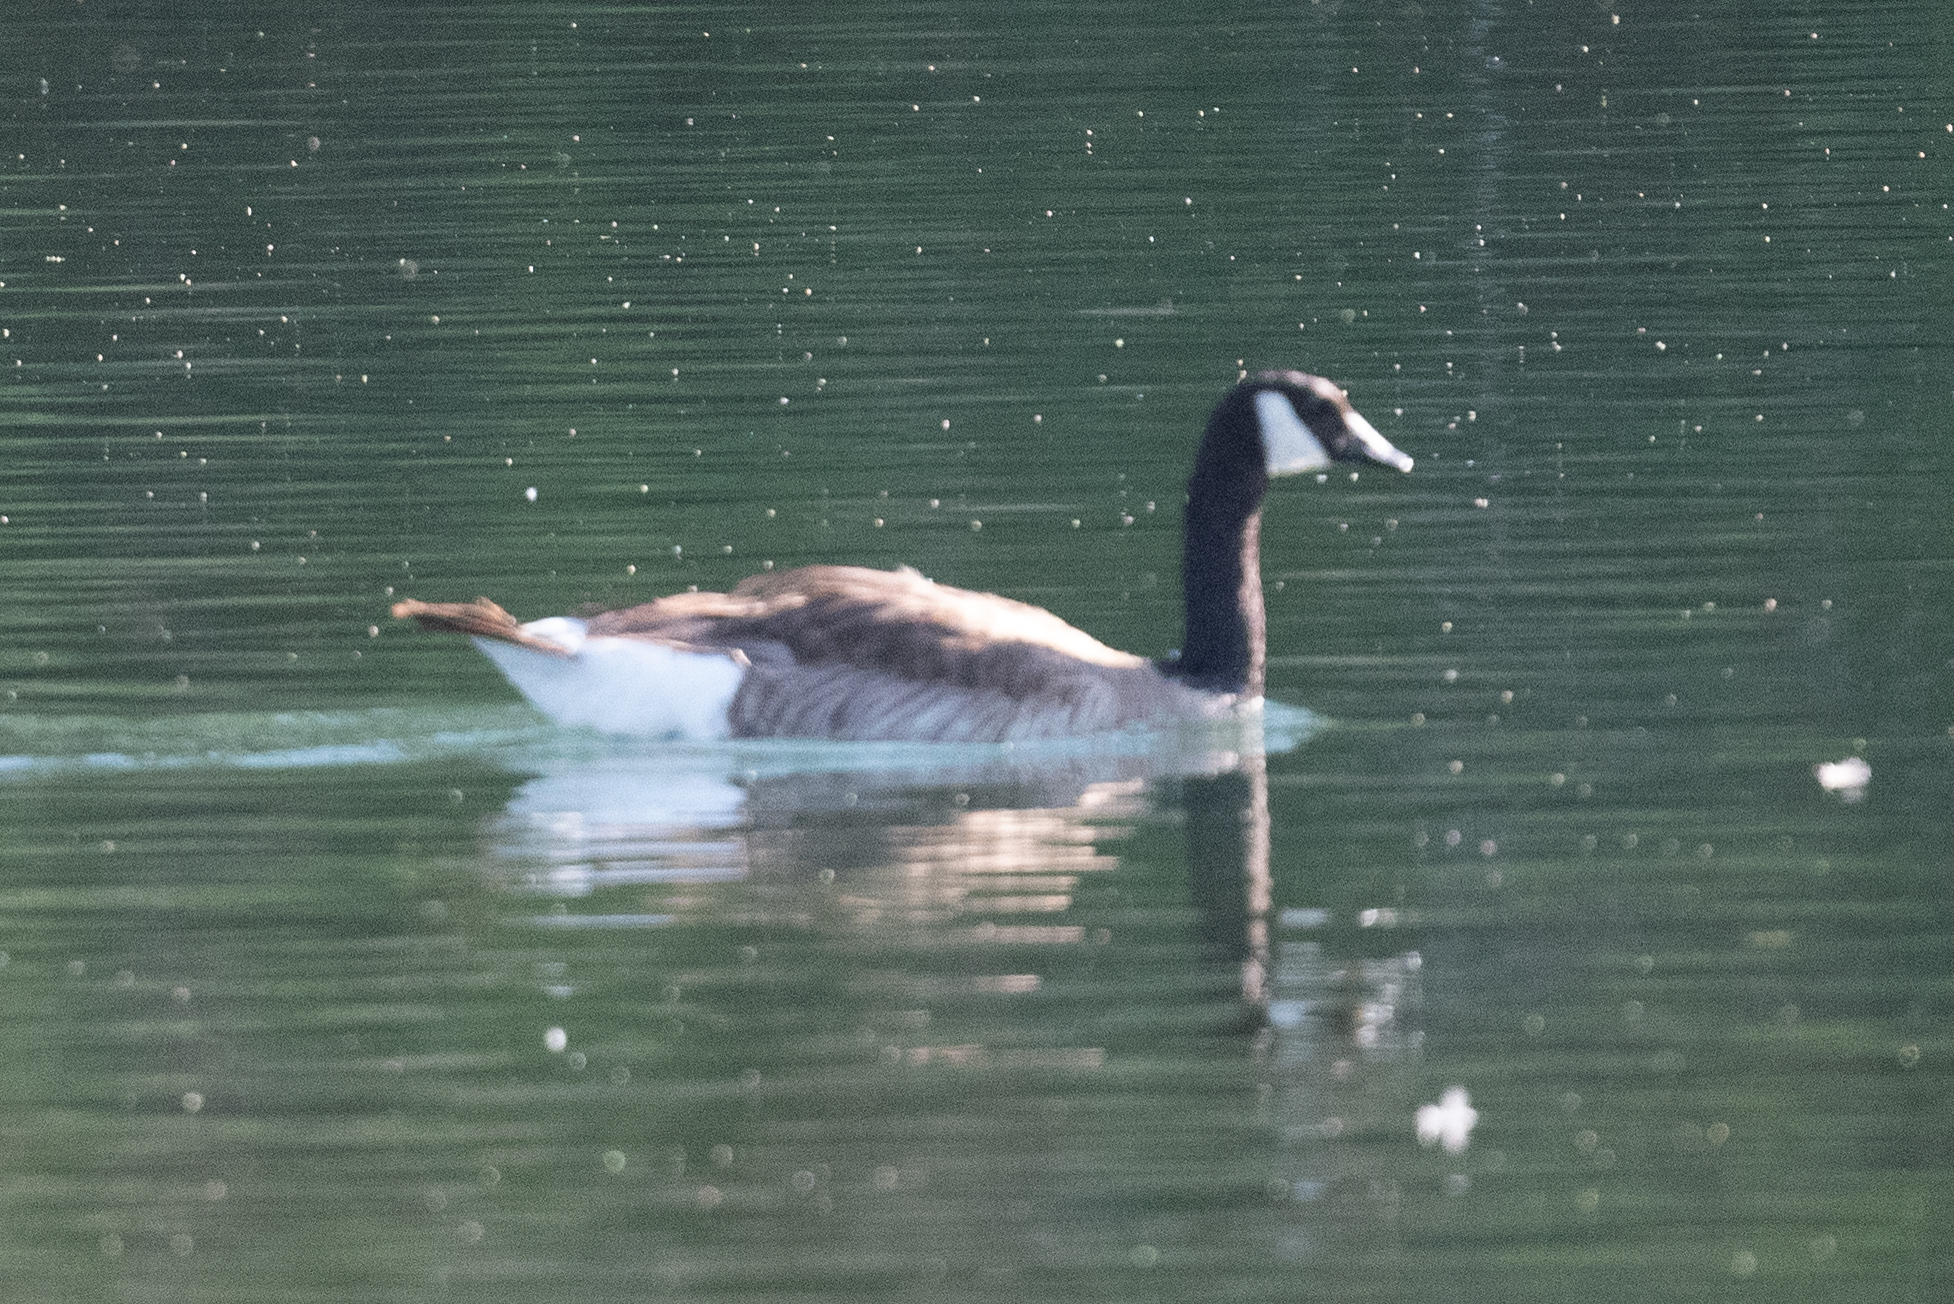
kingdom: Animalia
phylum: Chordata
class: Aves
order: Anseriformes
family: Anatidae
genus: Branta
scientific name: Branta canadensis
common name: Canada goose
